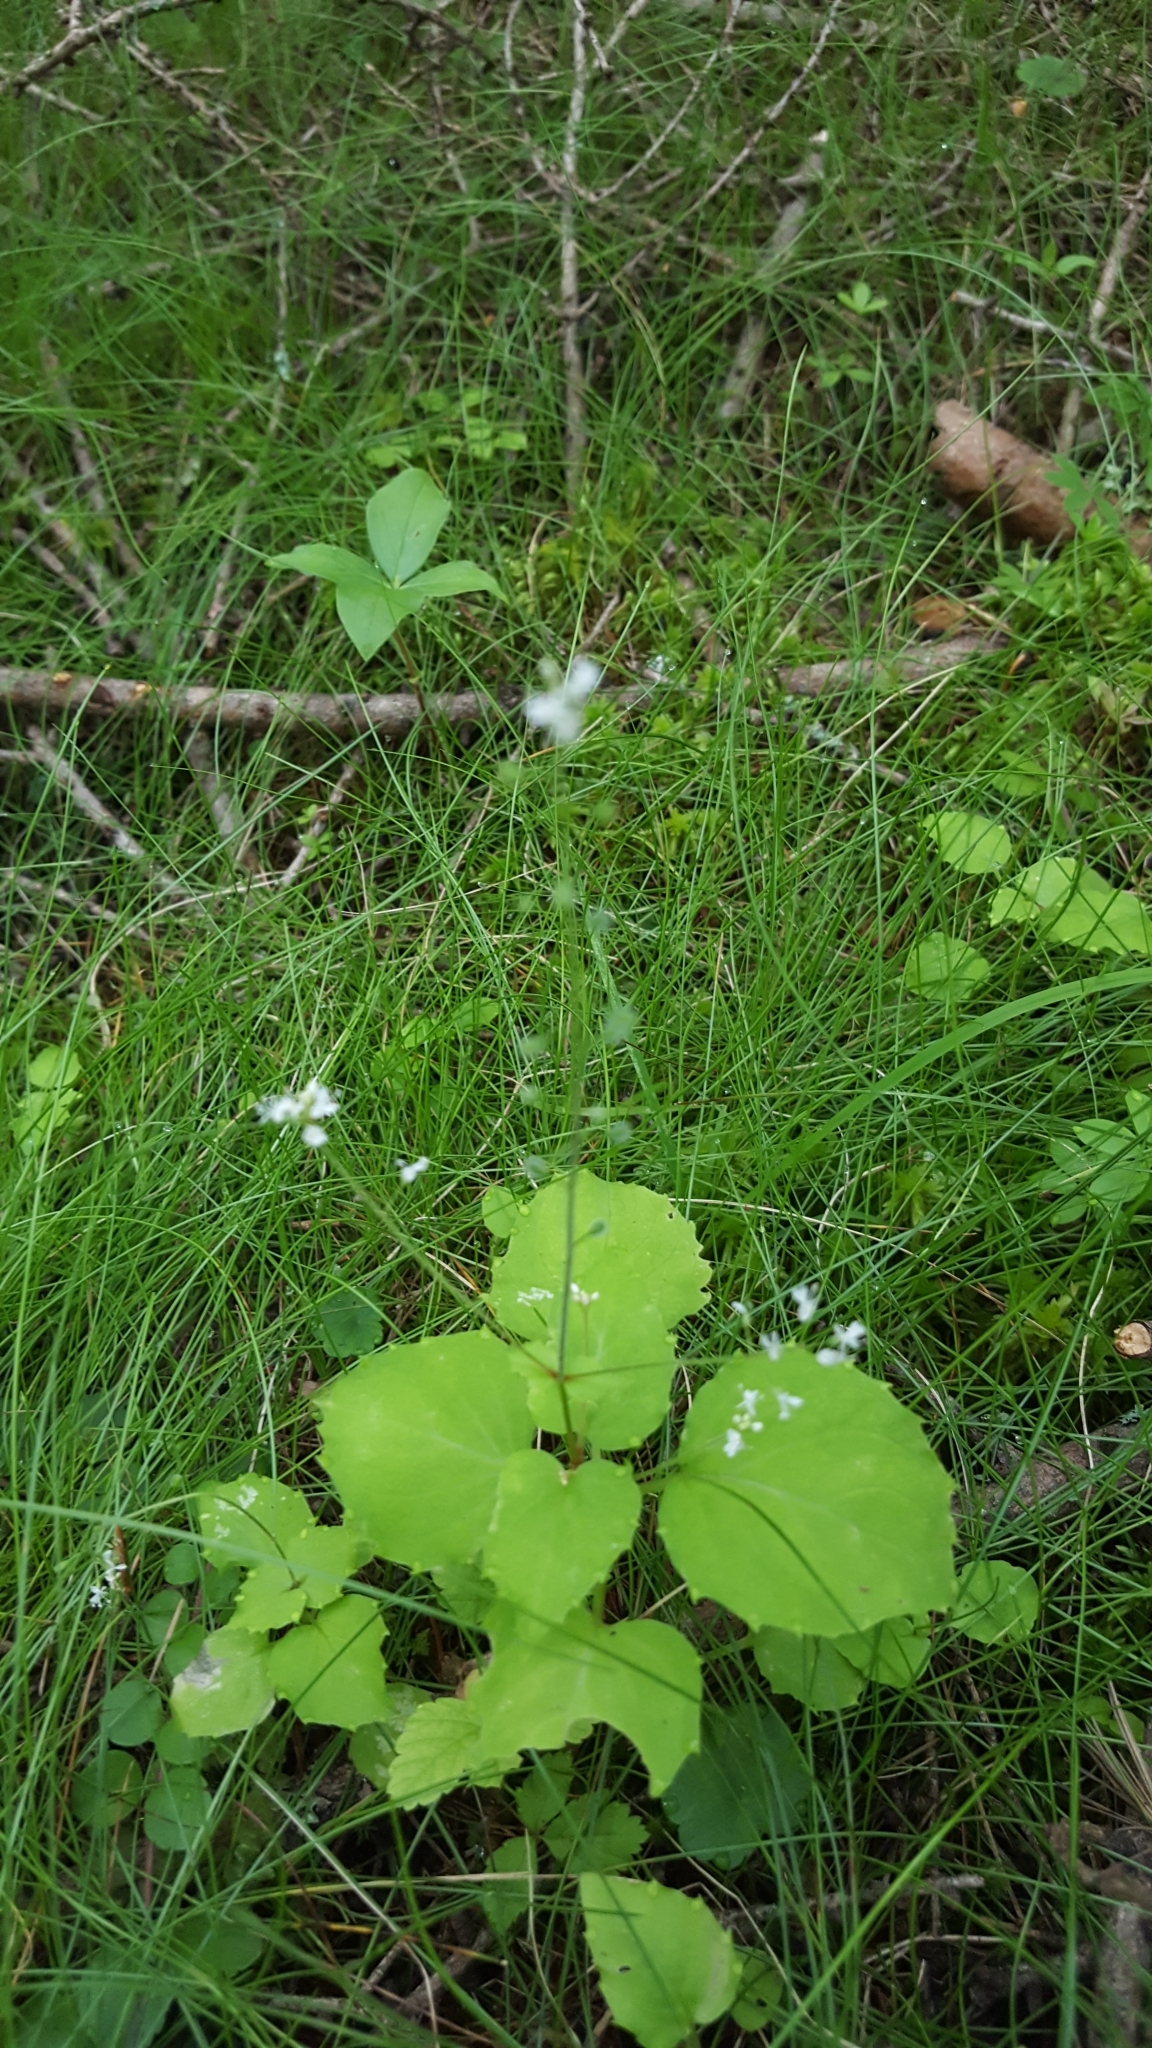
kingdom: Plantae
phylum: Tracheophyta
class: Magnoliopsida
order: Myrtales
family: Onagraceae
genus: Circaea
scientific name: Circaea alpina
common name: Alpine enchanter's-nightshade
